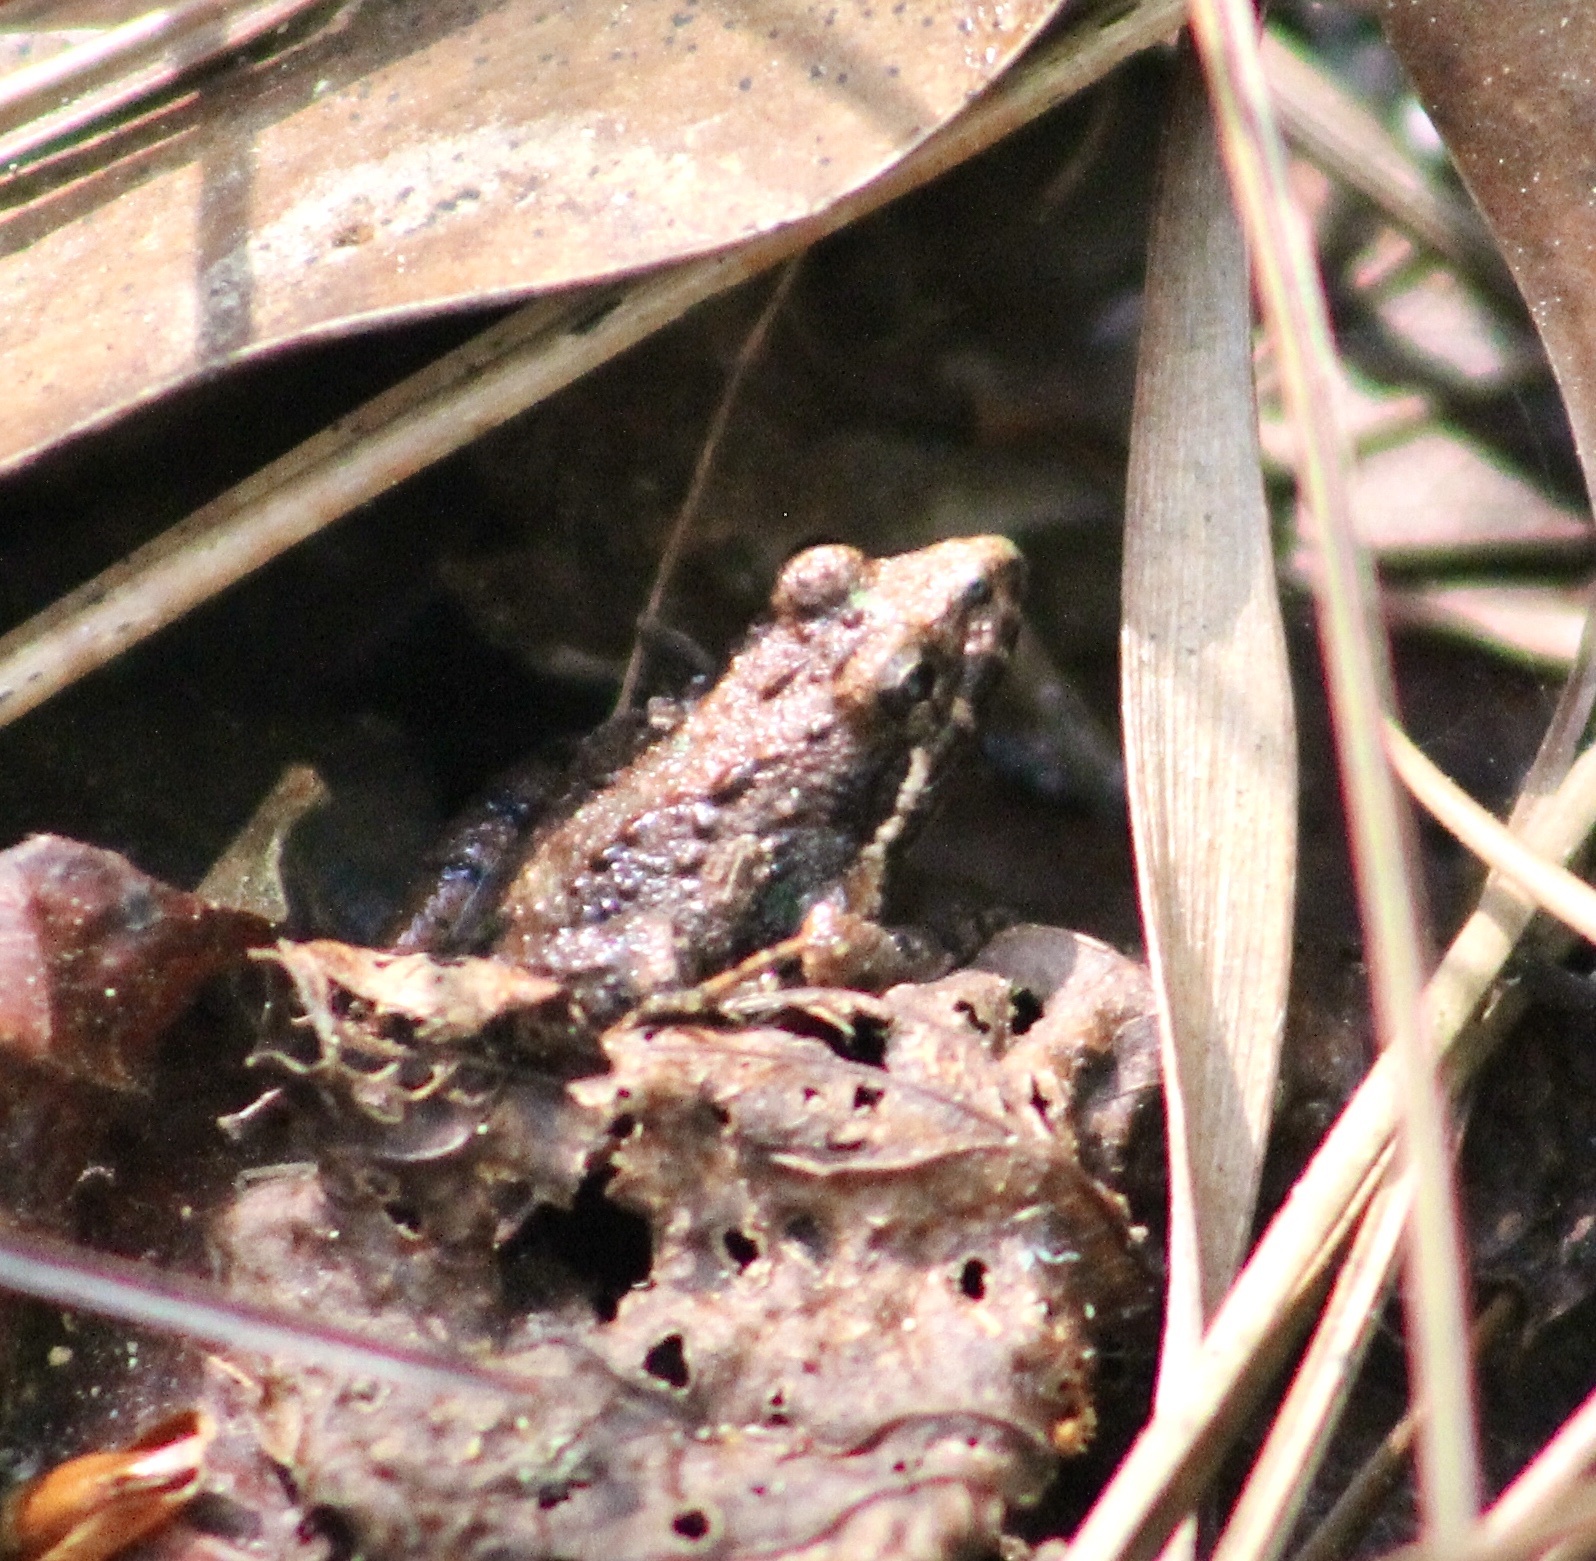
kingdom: Animalia
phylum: Chordata
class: Amphibia
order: Anura
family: Hylidae
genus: Acris
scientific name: Acris gryllus
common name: Southern cricket frog
